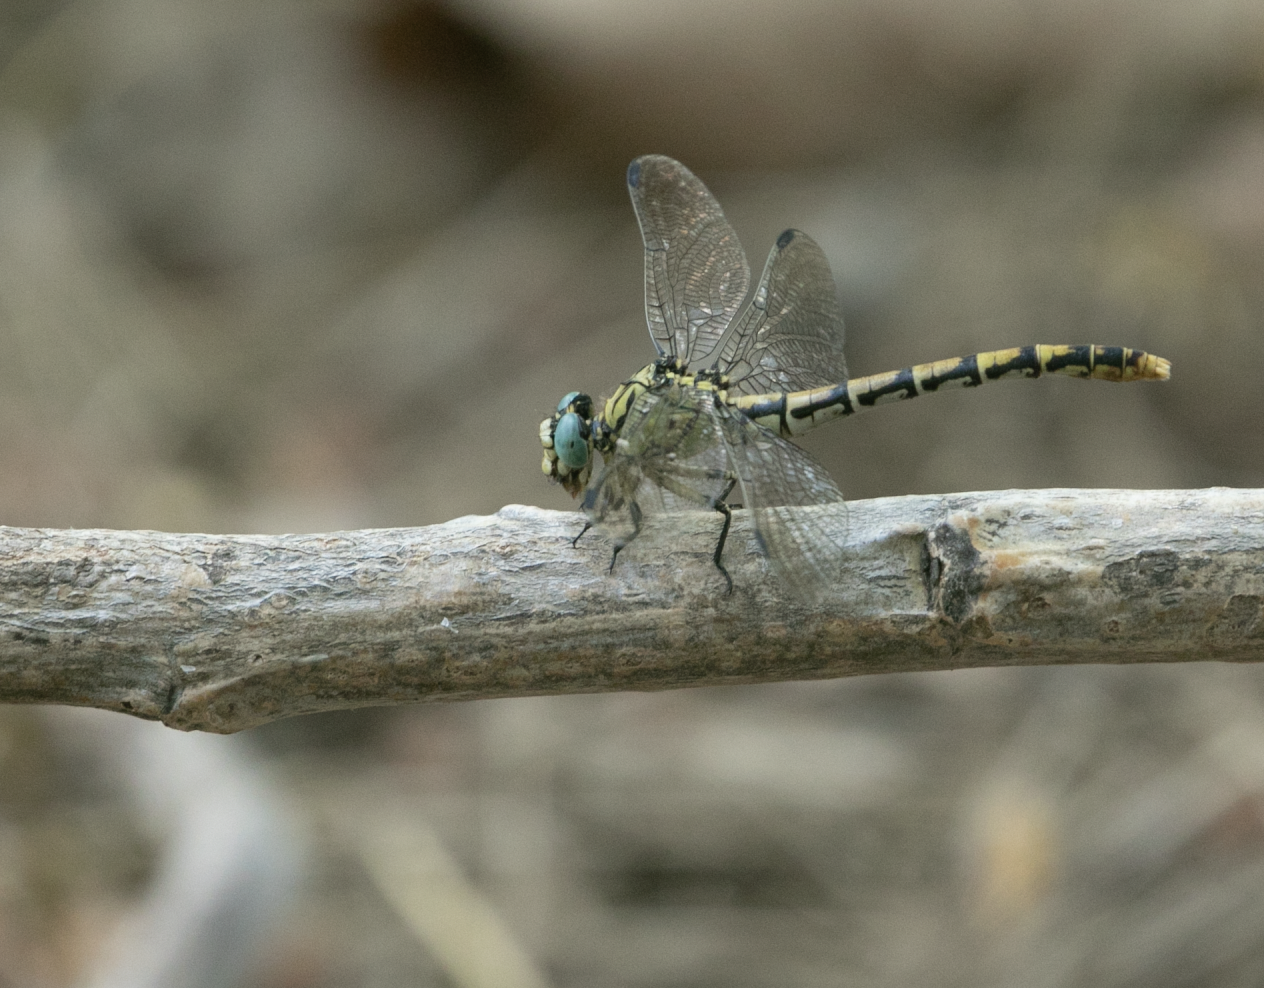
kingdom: Animalia
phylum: Arthropoda
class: Insecta
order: Odonata
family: Gomphidae
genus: Onychogomphus
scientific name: Onychogomphus forcipatus
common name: Small pincertail
